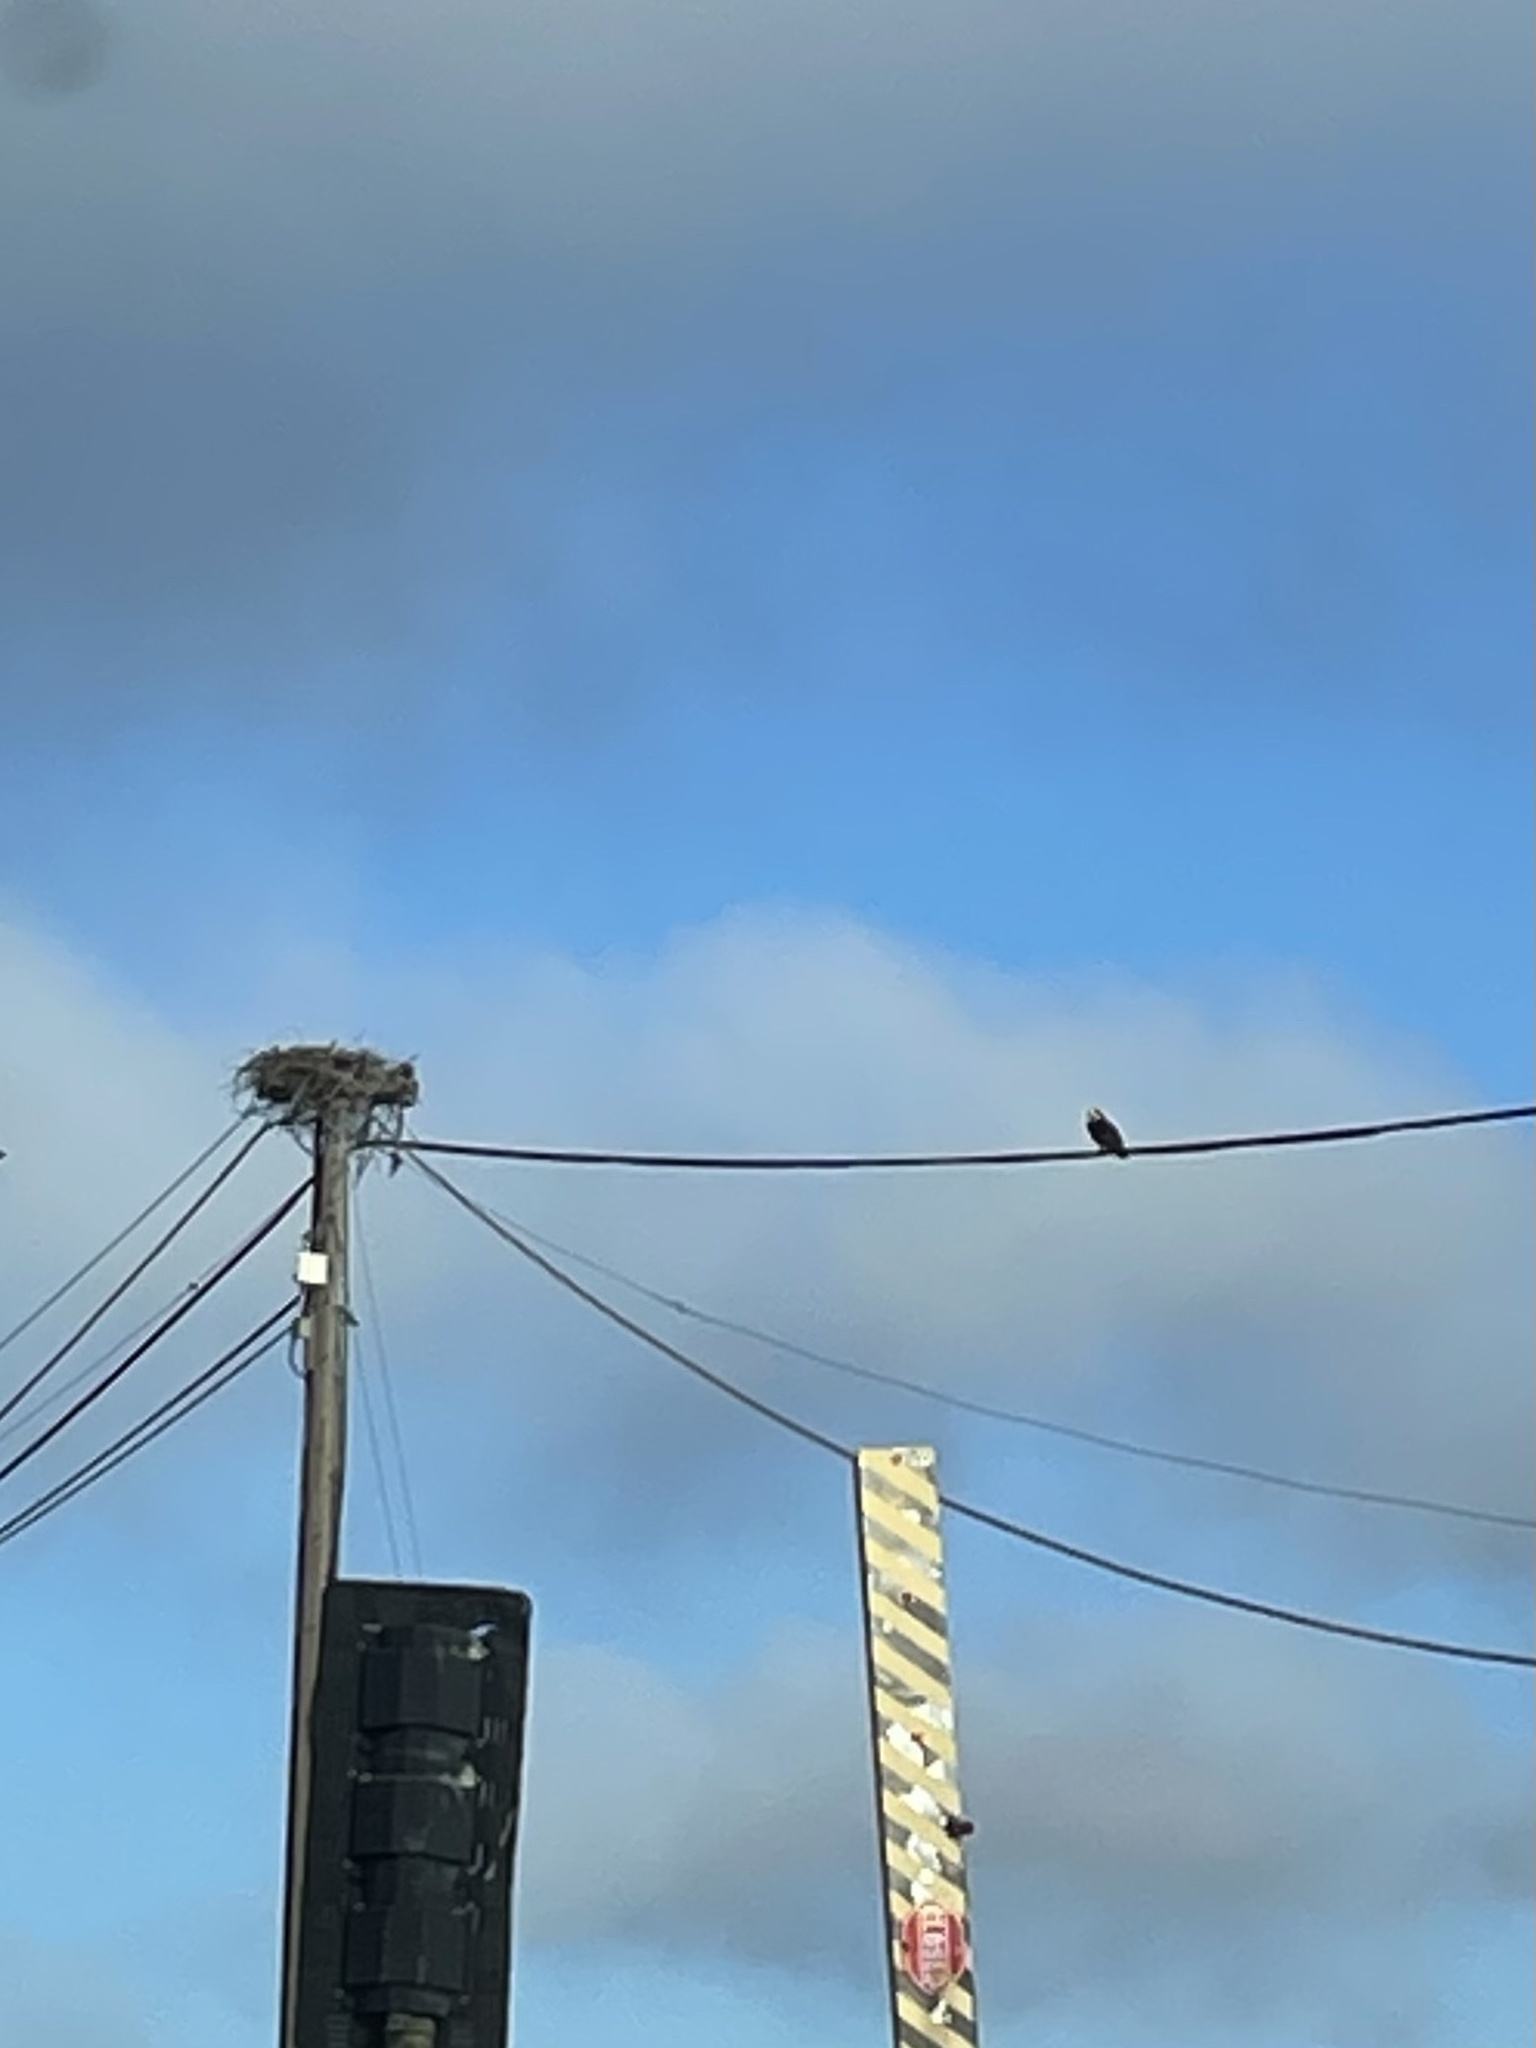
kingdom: Animalia
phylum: Chordata
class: Aves
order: Accipitriformes
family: Pandionidae
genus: Pandion
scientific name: Pandion haliaetus
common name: Osprey
